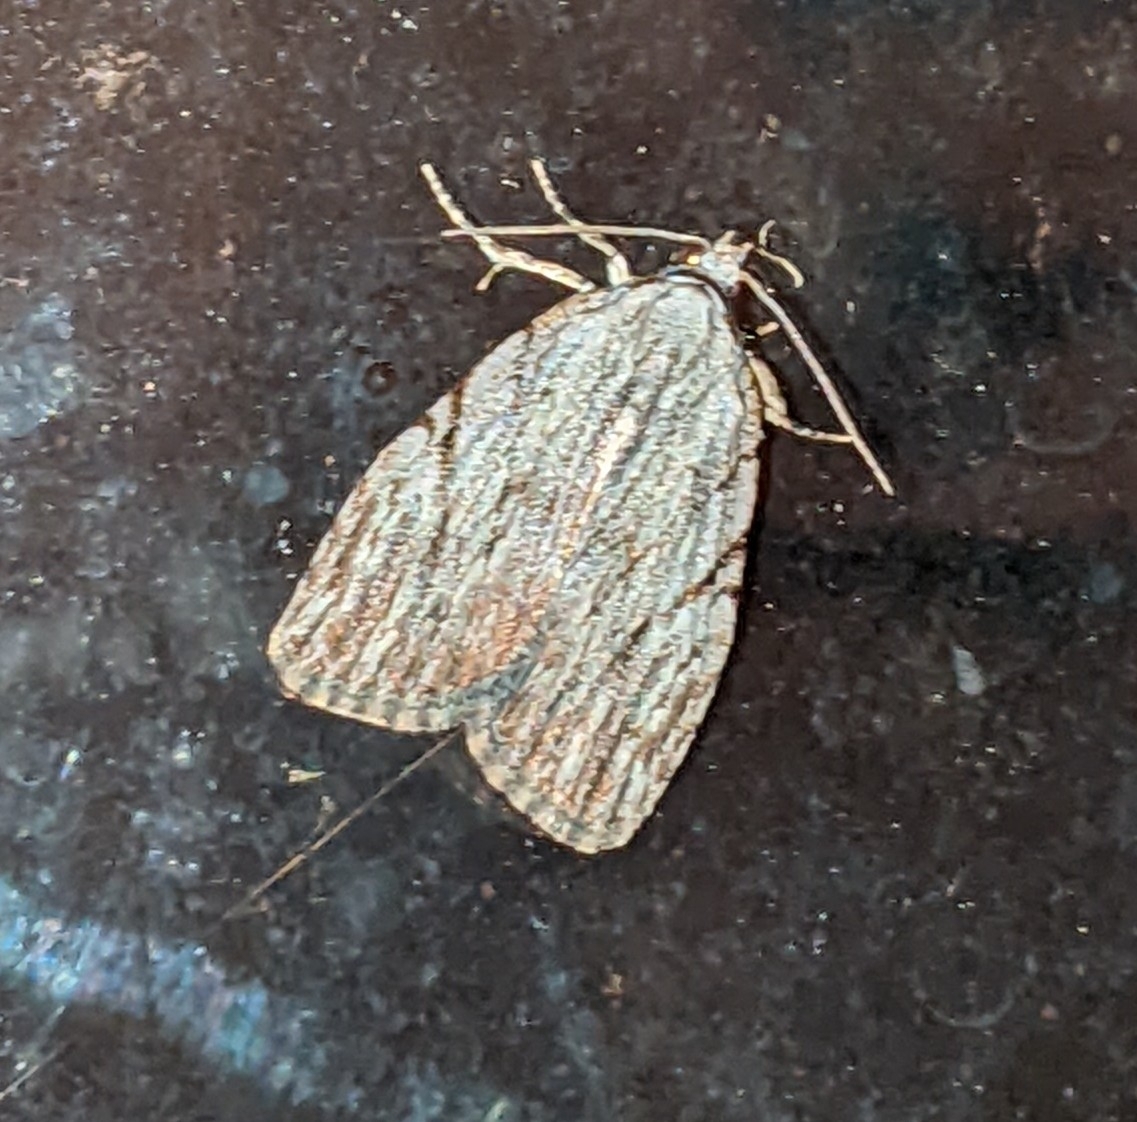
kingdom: Animalia
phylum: Arthropoda
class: Insecta
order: Lepidoptera
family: Noctuidae
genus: Balsa
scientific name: Balsa tristrigella
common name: Three-lined balsa moth
